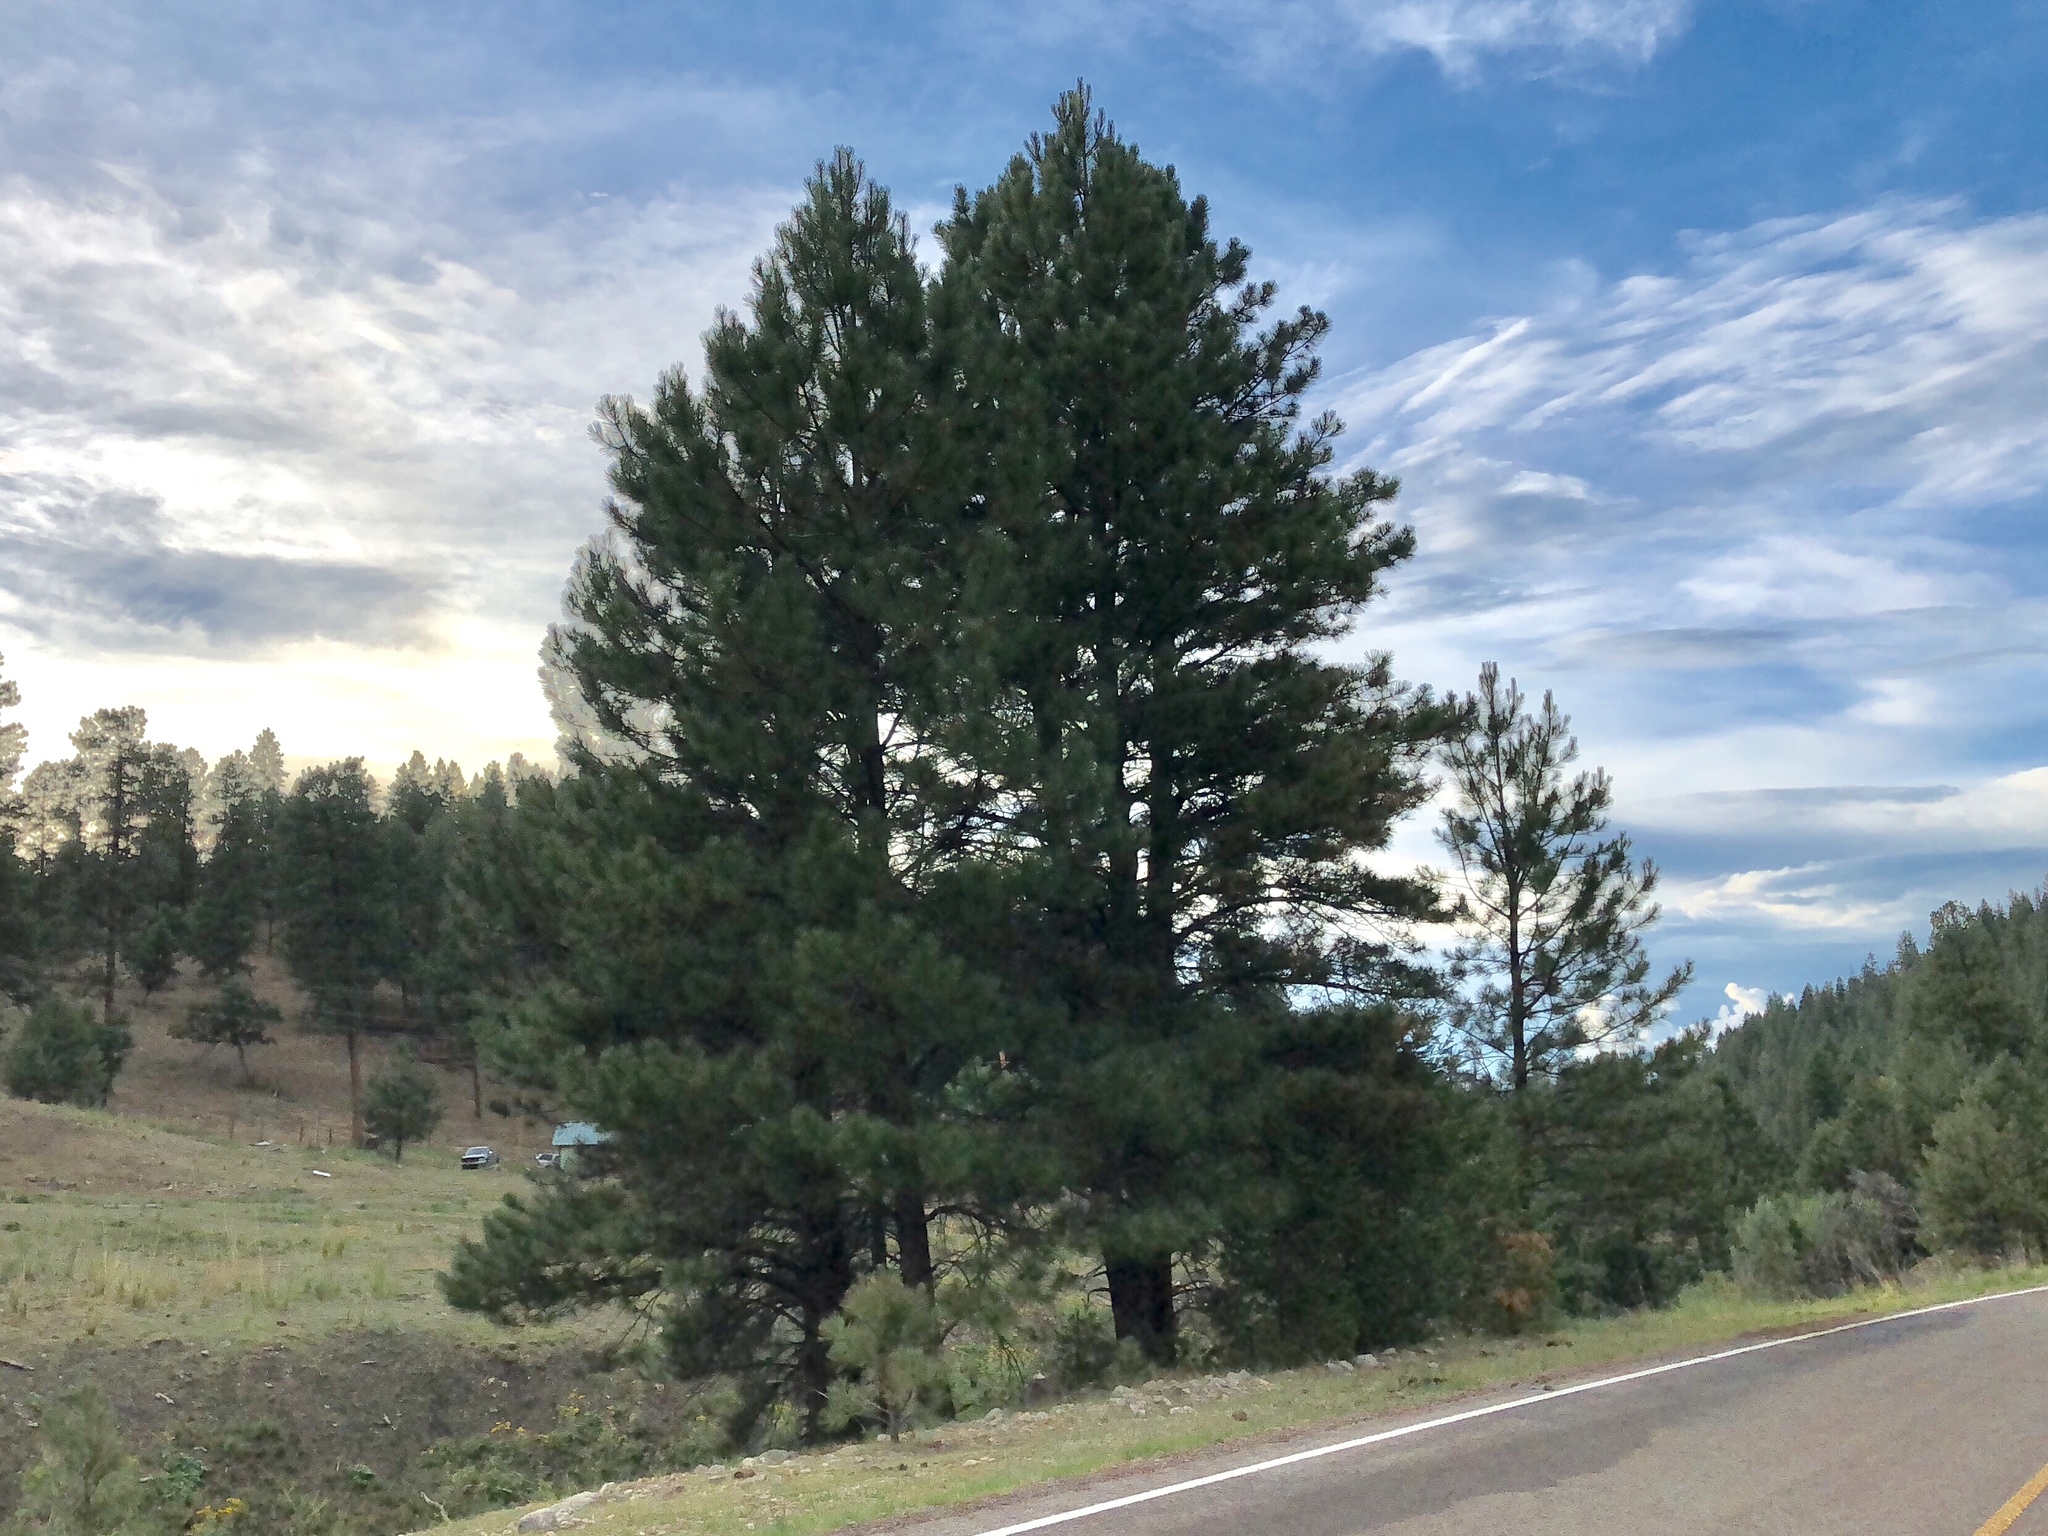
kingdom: Plantae
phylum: Tracheophyta
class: Pinopsida
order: Pinales
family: Pinaceae
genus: Pinus
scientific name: Pinus ponderosa
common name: Western yellow-pine
